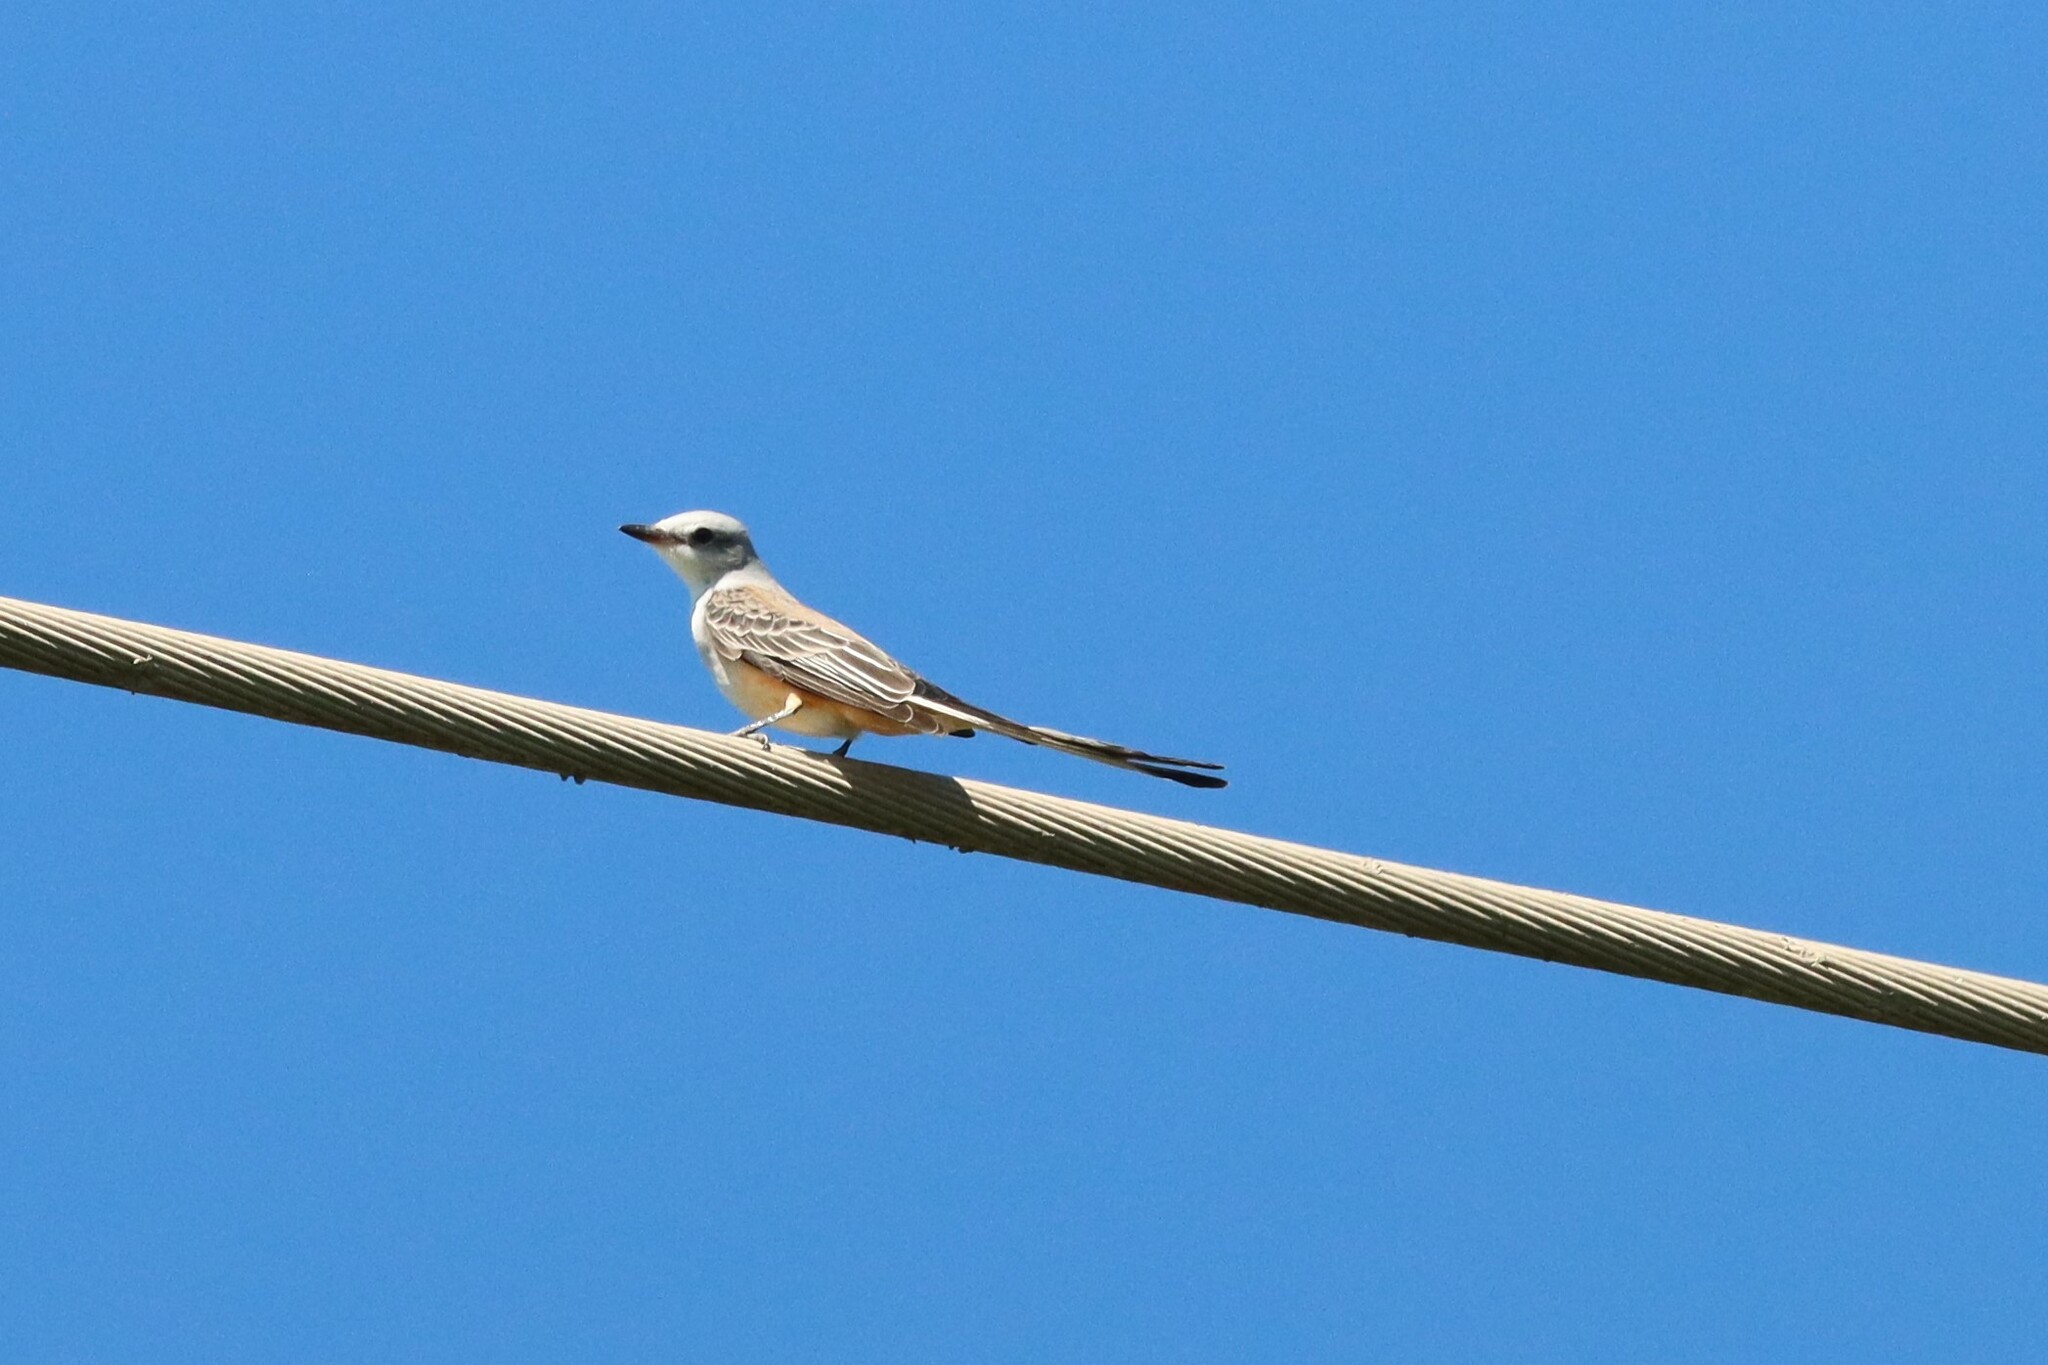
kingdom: Animalia
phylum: Chordata
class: Aves
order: Passeriformes
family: Tyrannidae
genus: Tyrannus
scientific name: Tyrannus forficatus
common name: Scissor-tailed flycatcher
